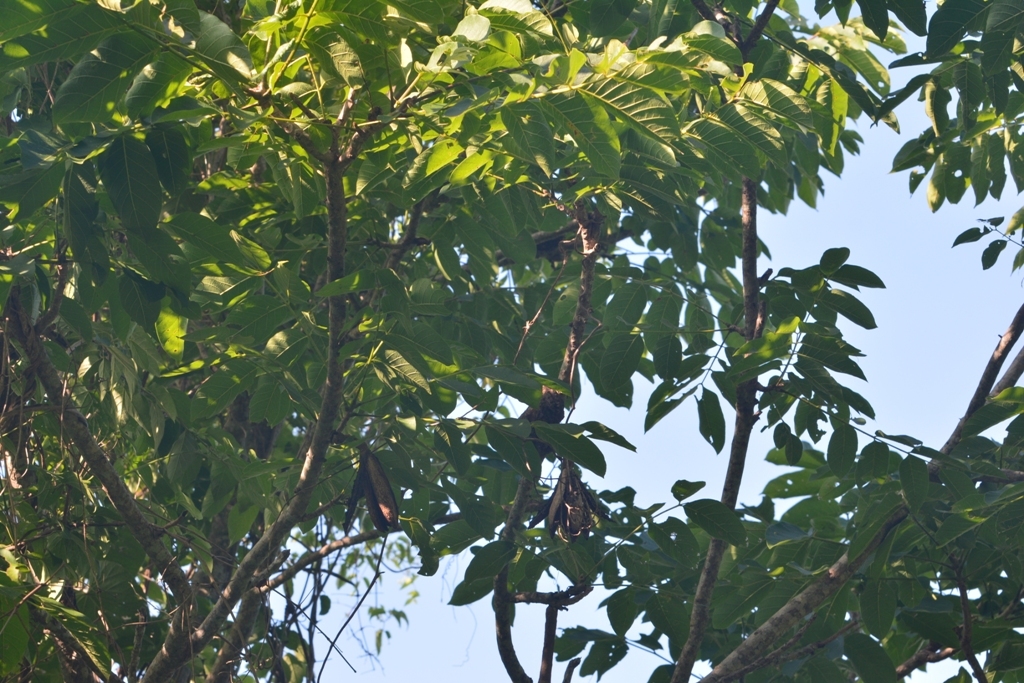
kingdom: Plantae
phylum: Tracheophyta
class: Magnoliopsida
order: Sapindales
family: Meliaceae
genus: Cedrela
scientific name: Cedrela salvadorensis
